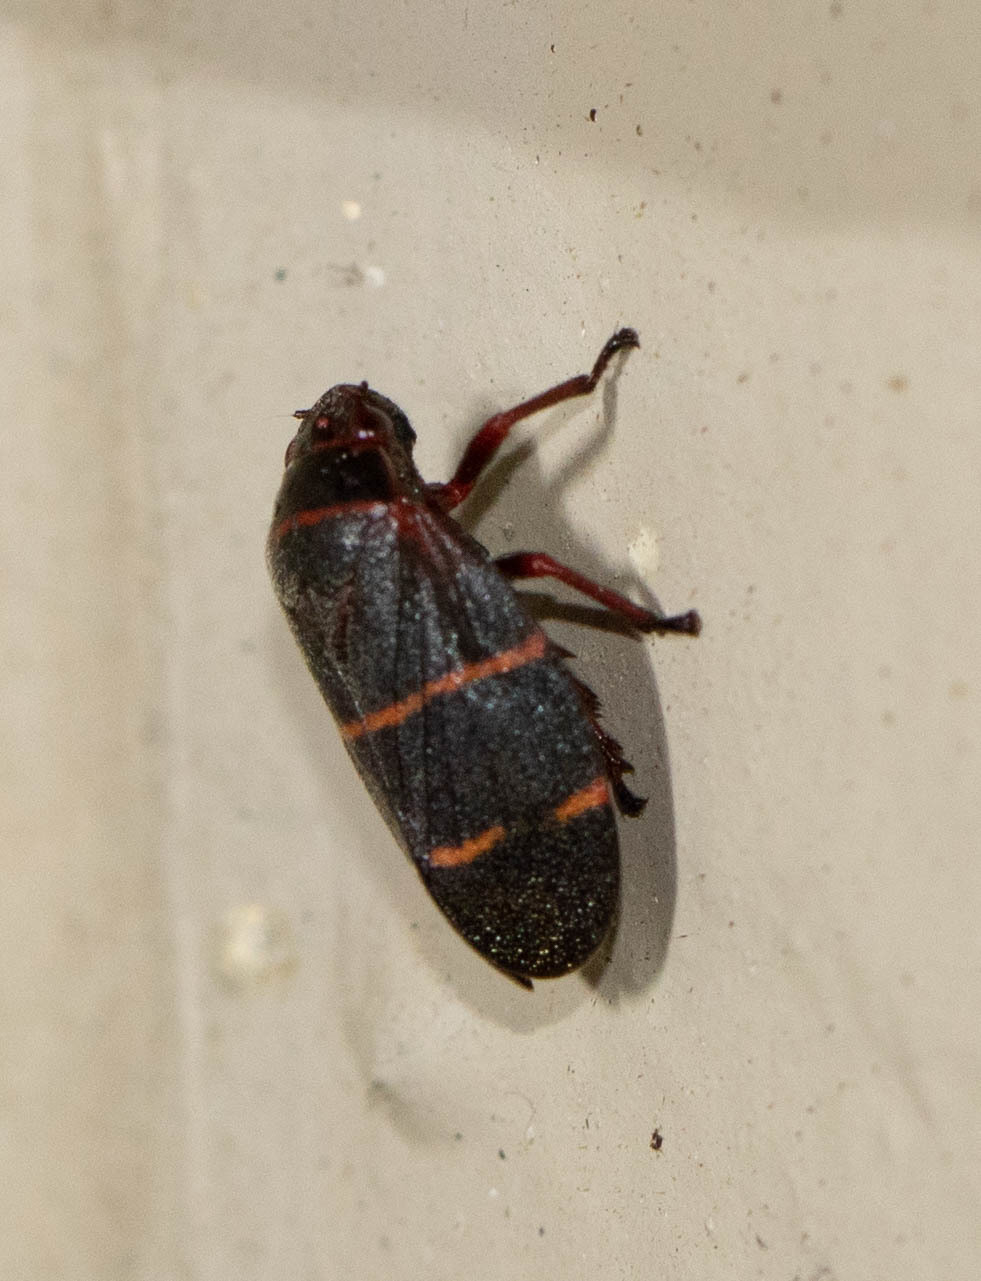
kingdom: Animalia
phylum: Arthropoda
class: Insecta
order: Hemiptera
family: Cercopidae
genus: Prosapia
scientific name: Prosapia bicincta
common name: Twolined spittlebug
